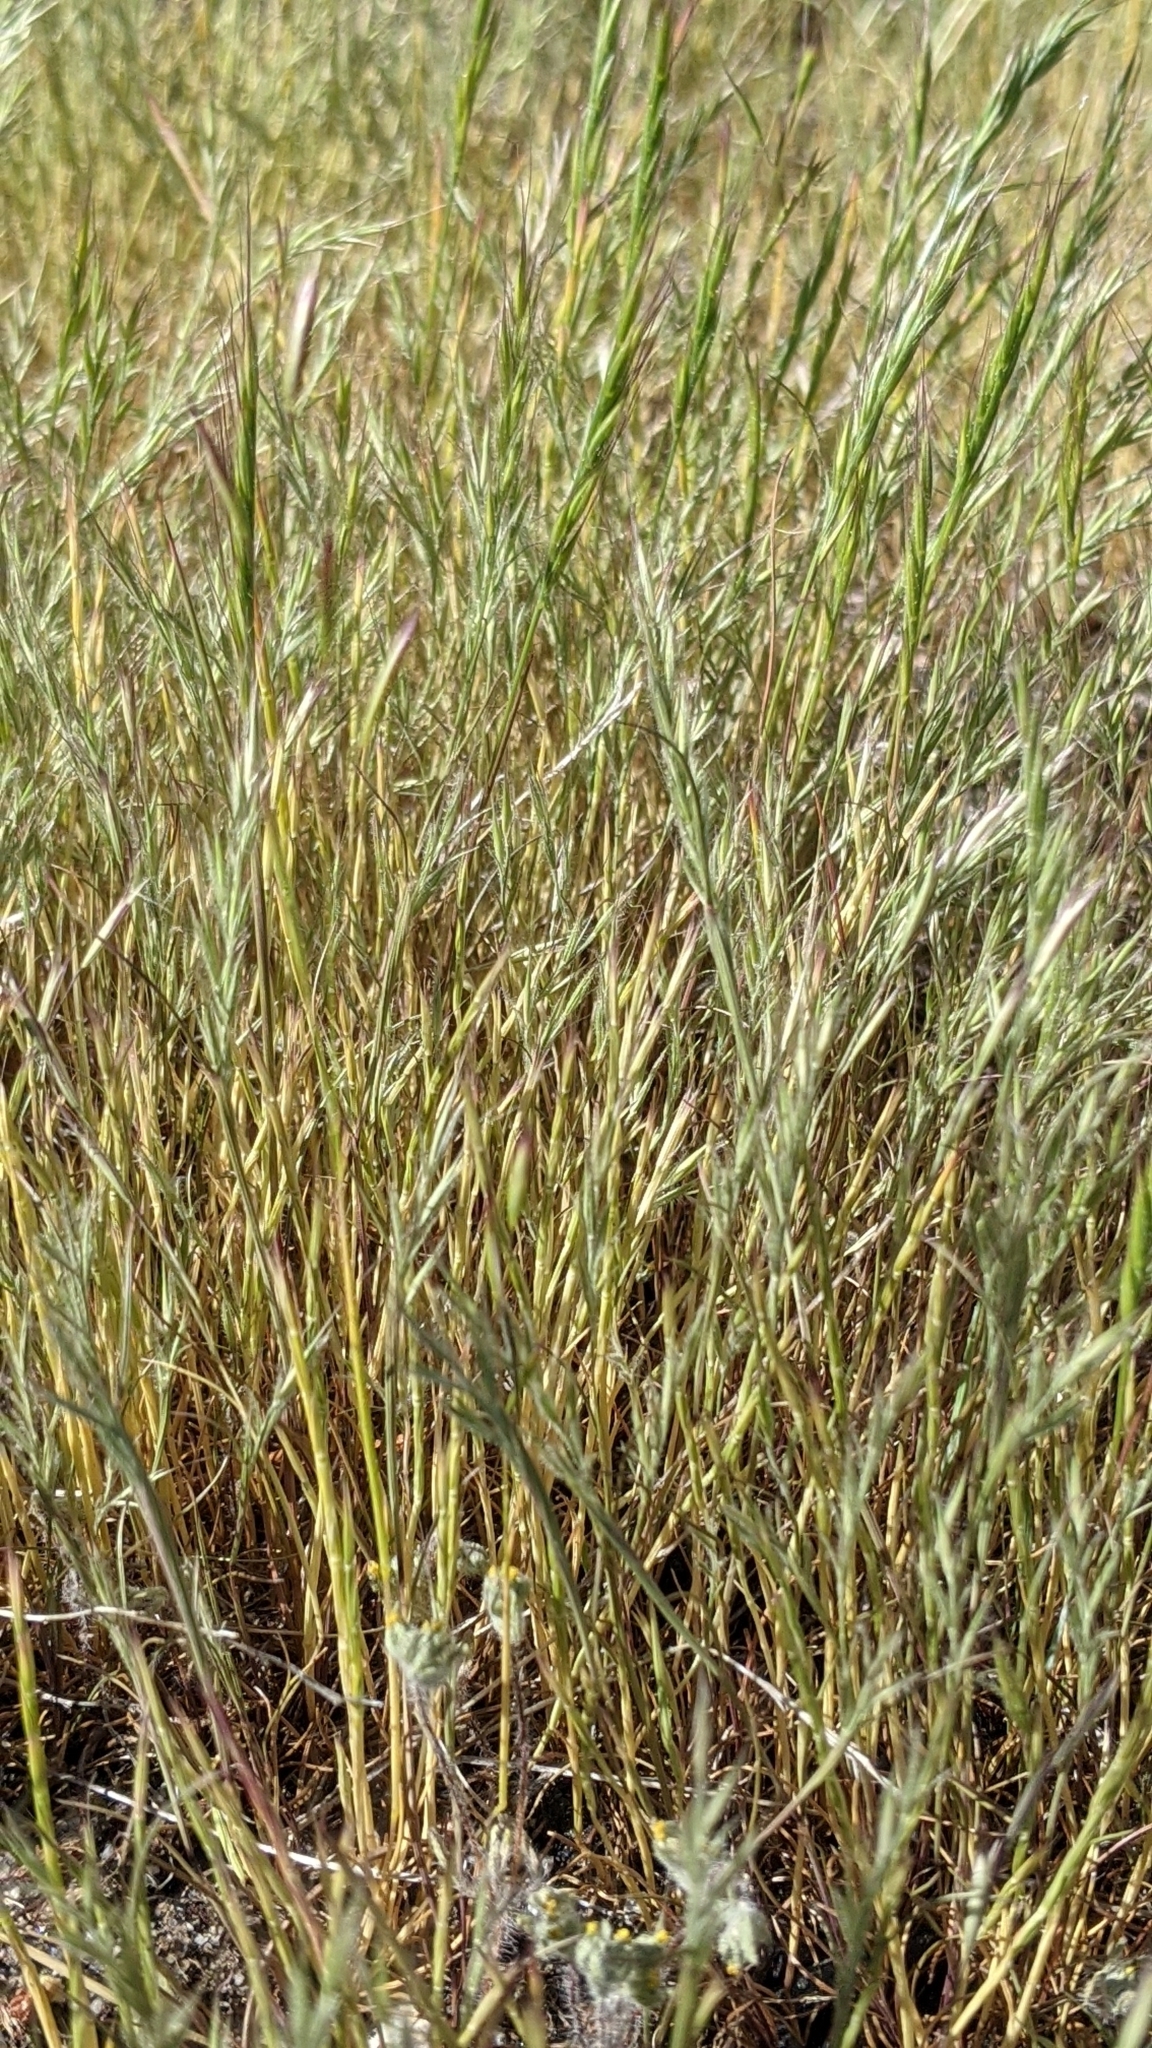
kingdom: Plantae
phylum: Tracheophyta
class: Liliopsida
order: Poales
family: Poaceae
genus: Festuca
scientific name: Festuca microstachys
